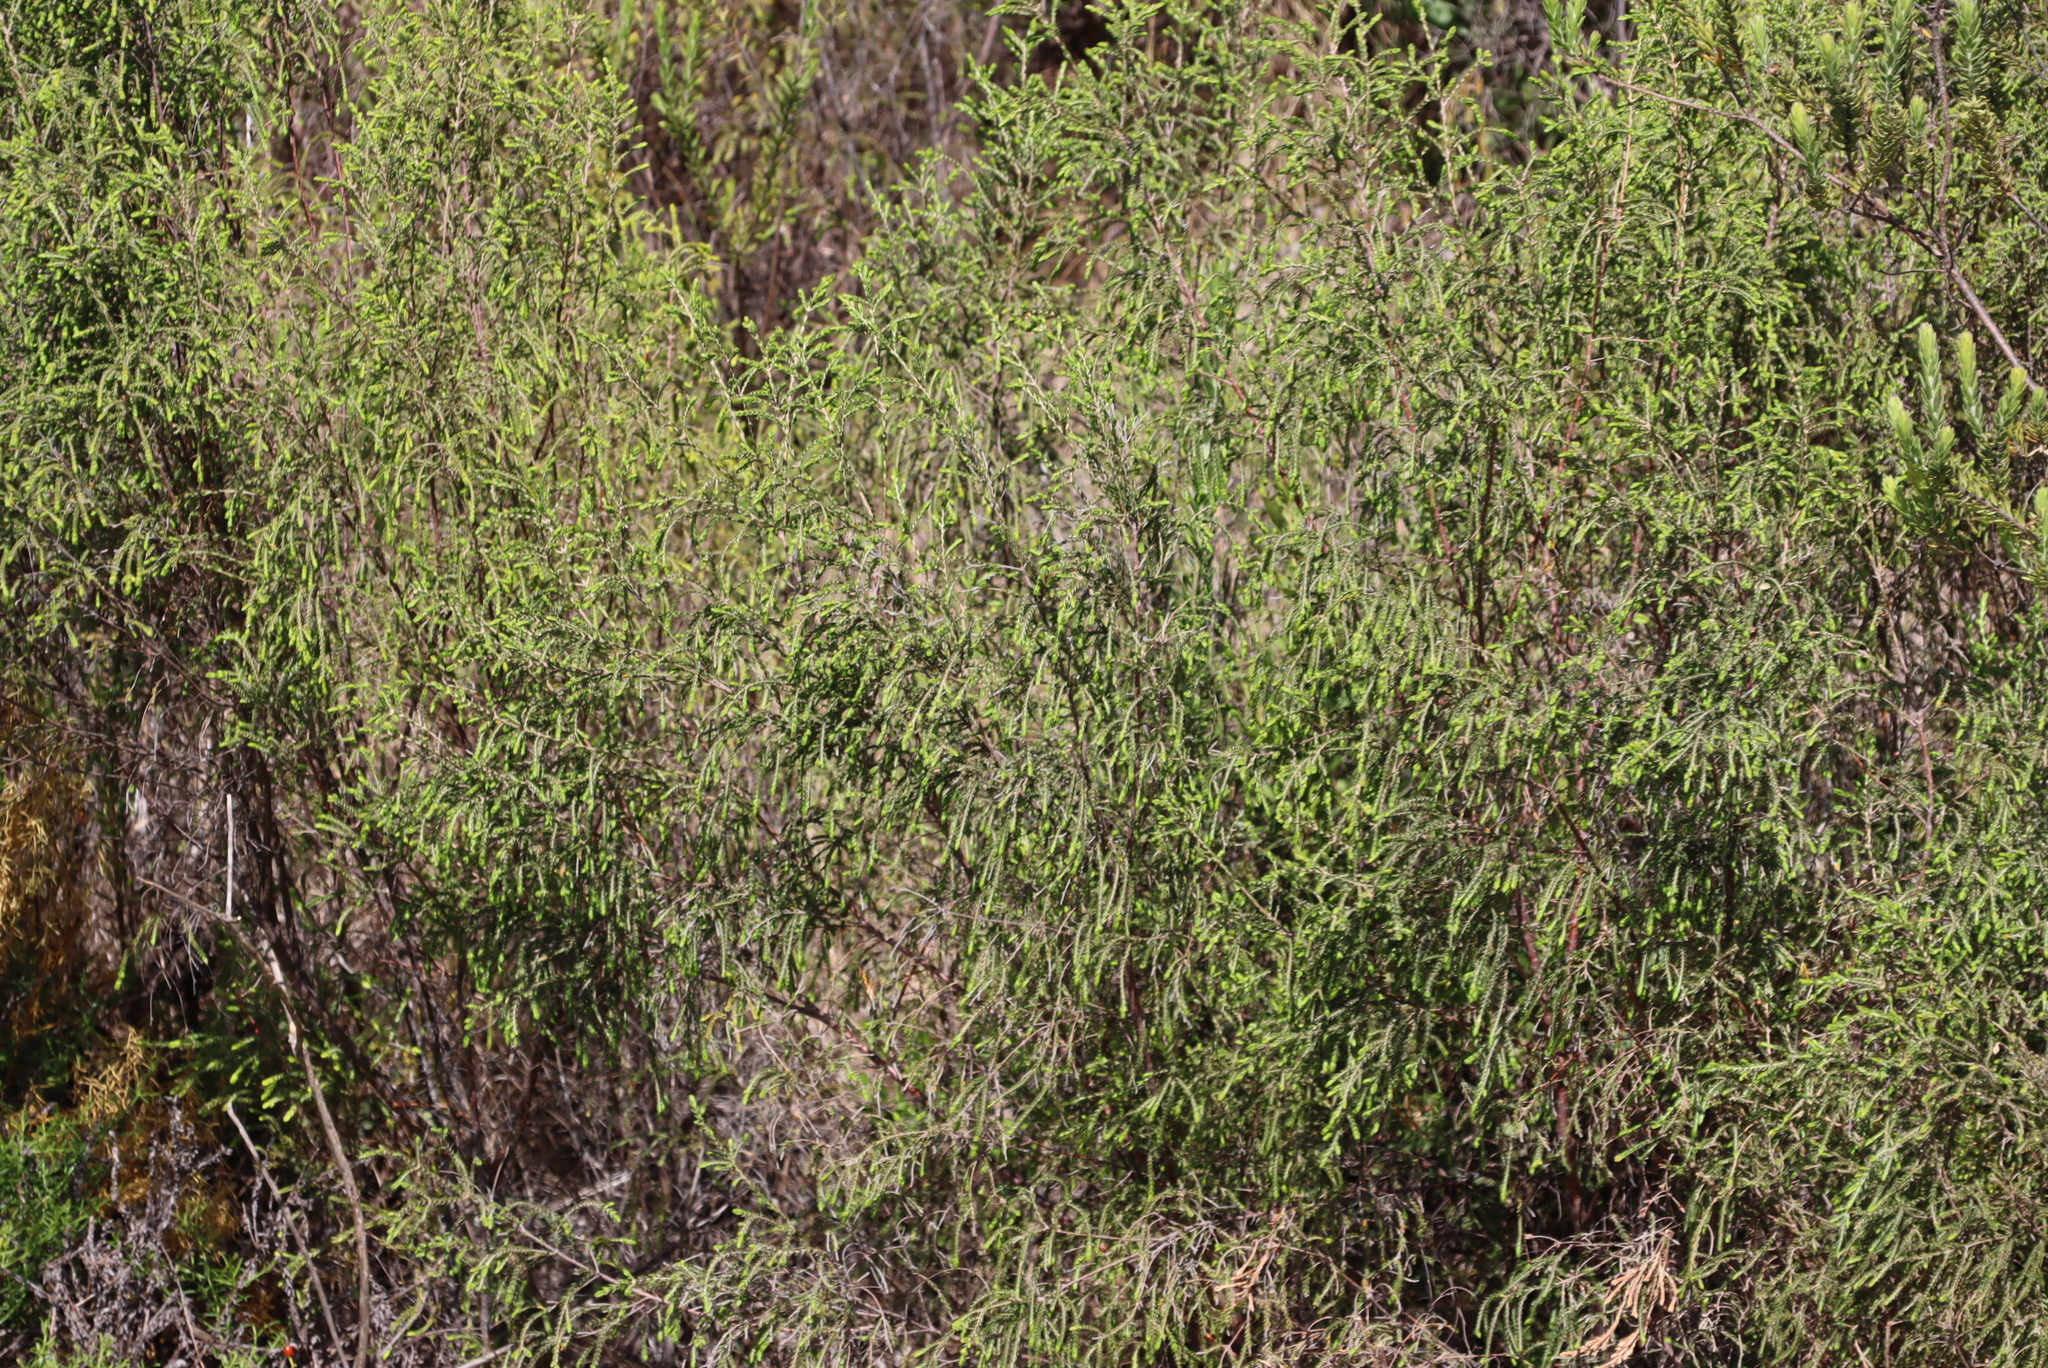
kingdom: Plantae
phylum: Tracheophyta
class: Magnoliopsida
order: Malvales
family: Thymelaeaceae
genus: Passerina
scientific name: Passerina falcifolia
